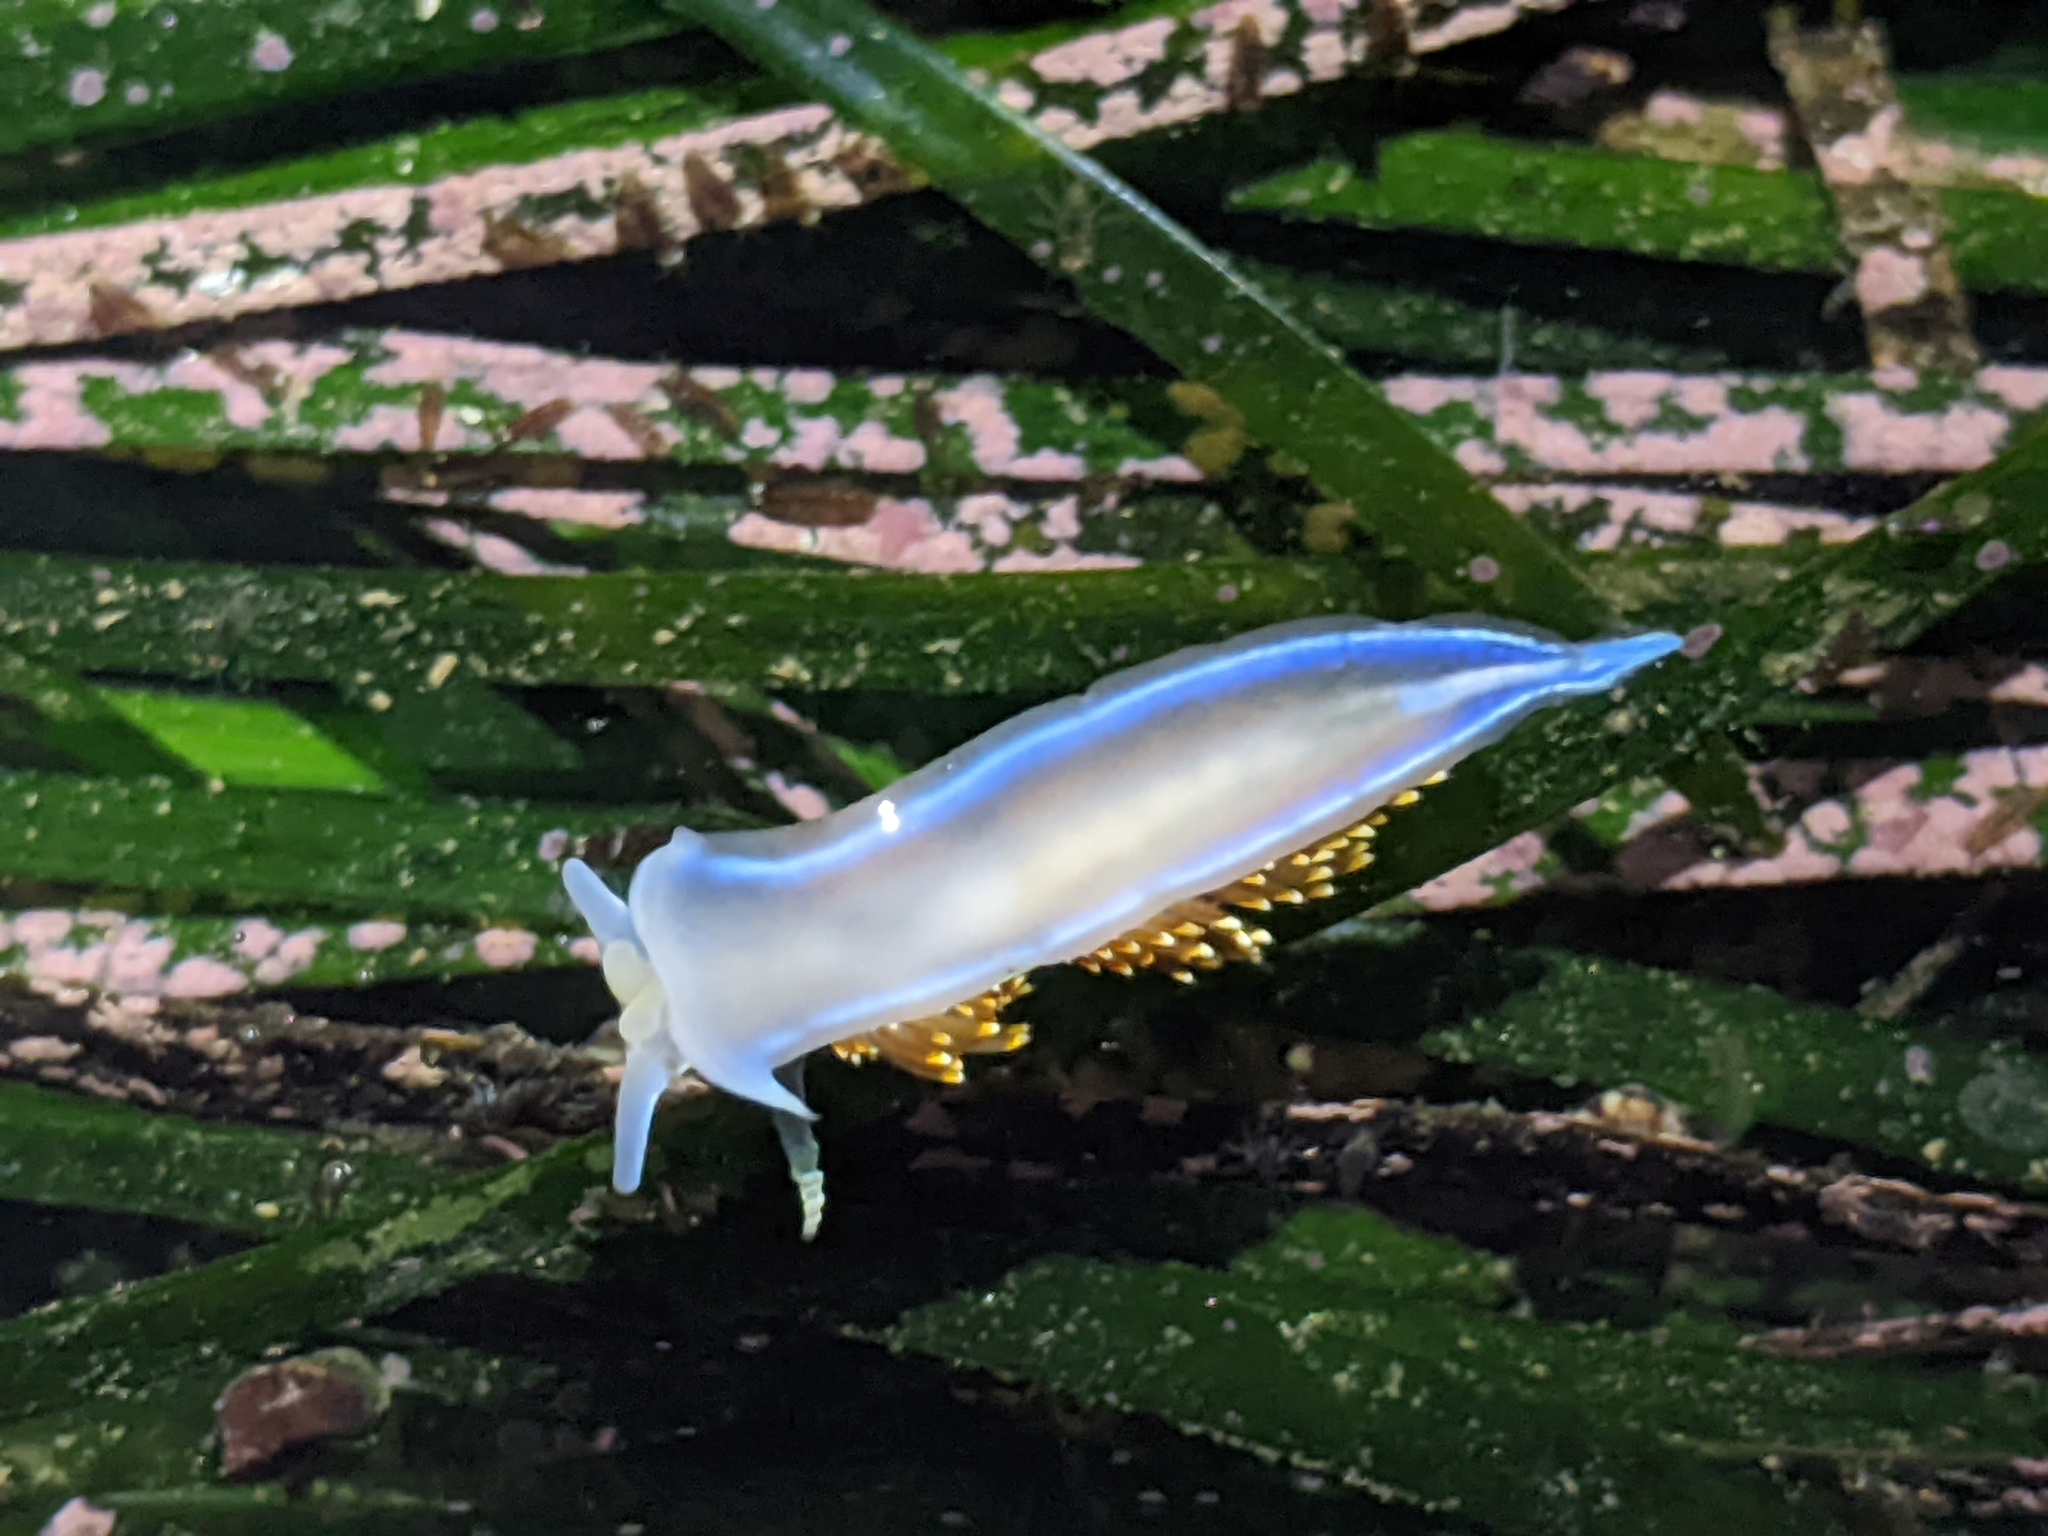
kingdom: Animalia
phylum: Mollusca
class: Gastropoda
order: Nudibranchia
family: Myrrhinidae
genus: Hermissenda
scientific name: Hermissenda opalescens
